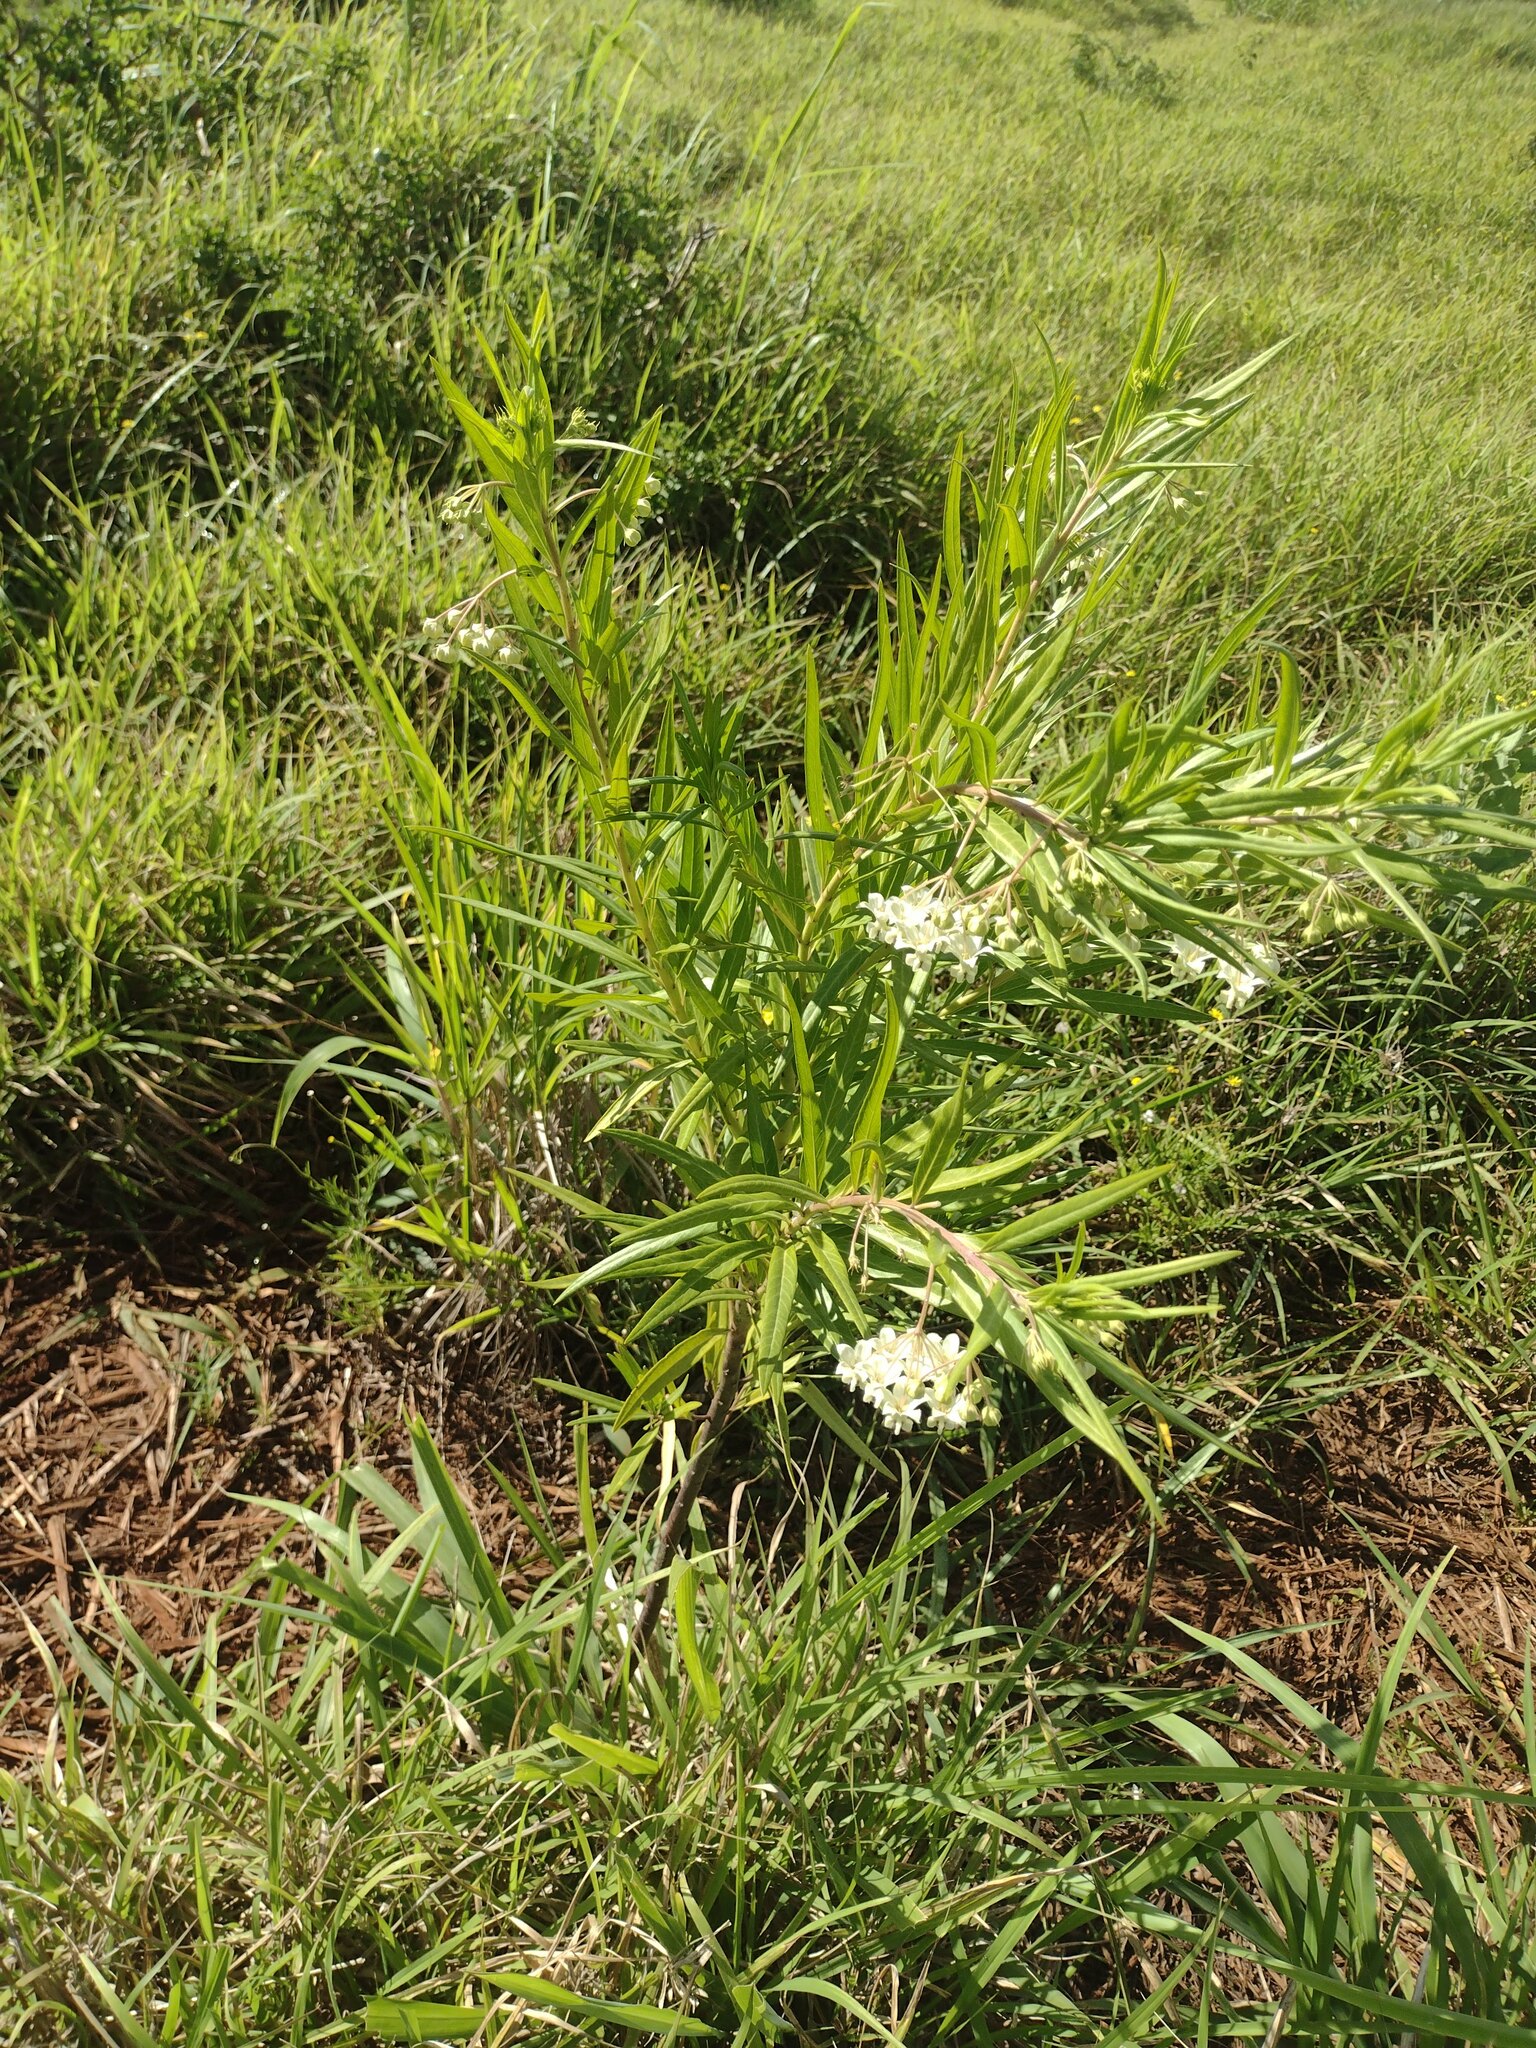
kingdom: Plantae
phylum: Tracheophyta
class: Magnoliopsida
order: Gentianales
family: Apocynaceae
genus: Gomphocarpus
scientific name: Gomphocarpus physocarpus
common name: Balloon cotton bush
